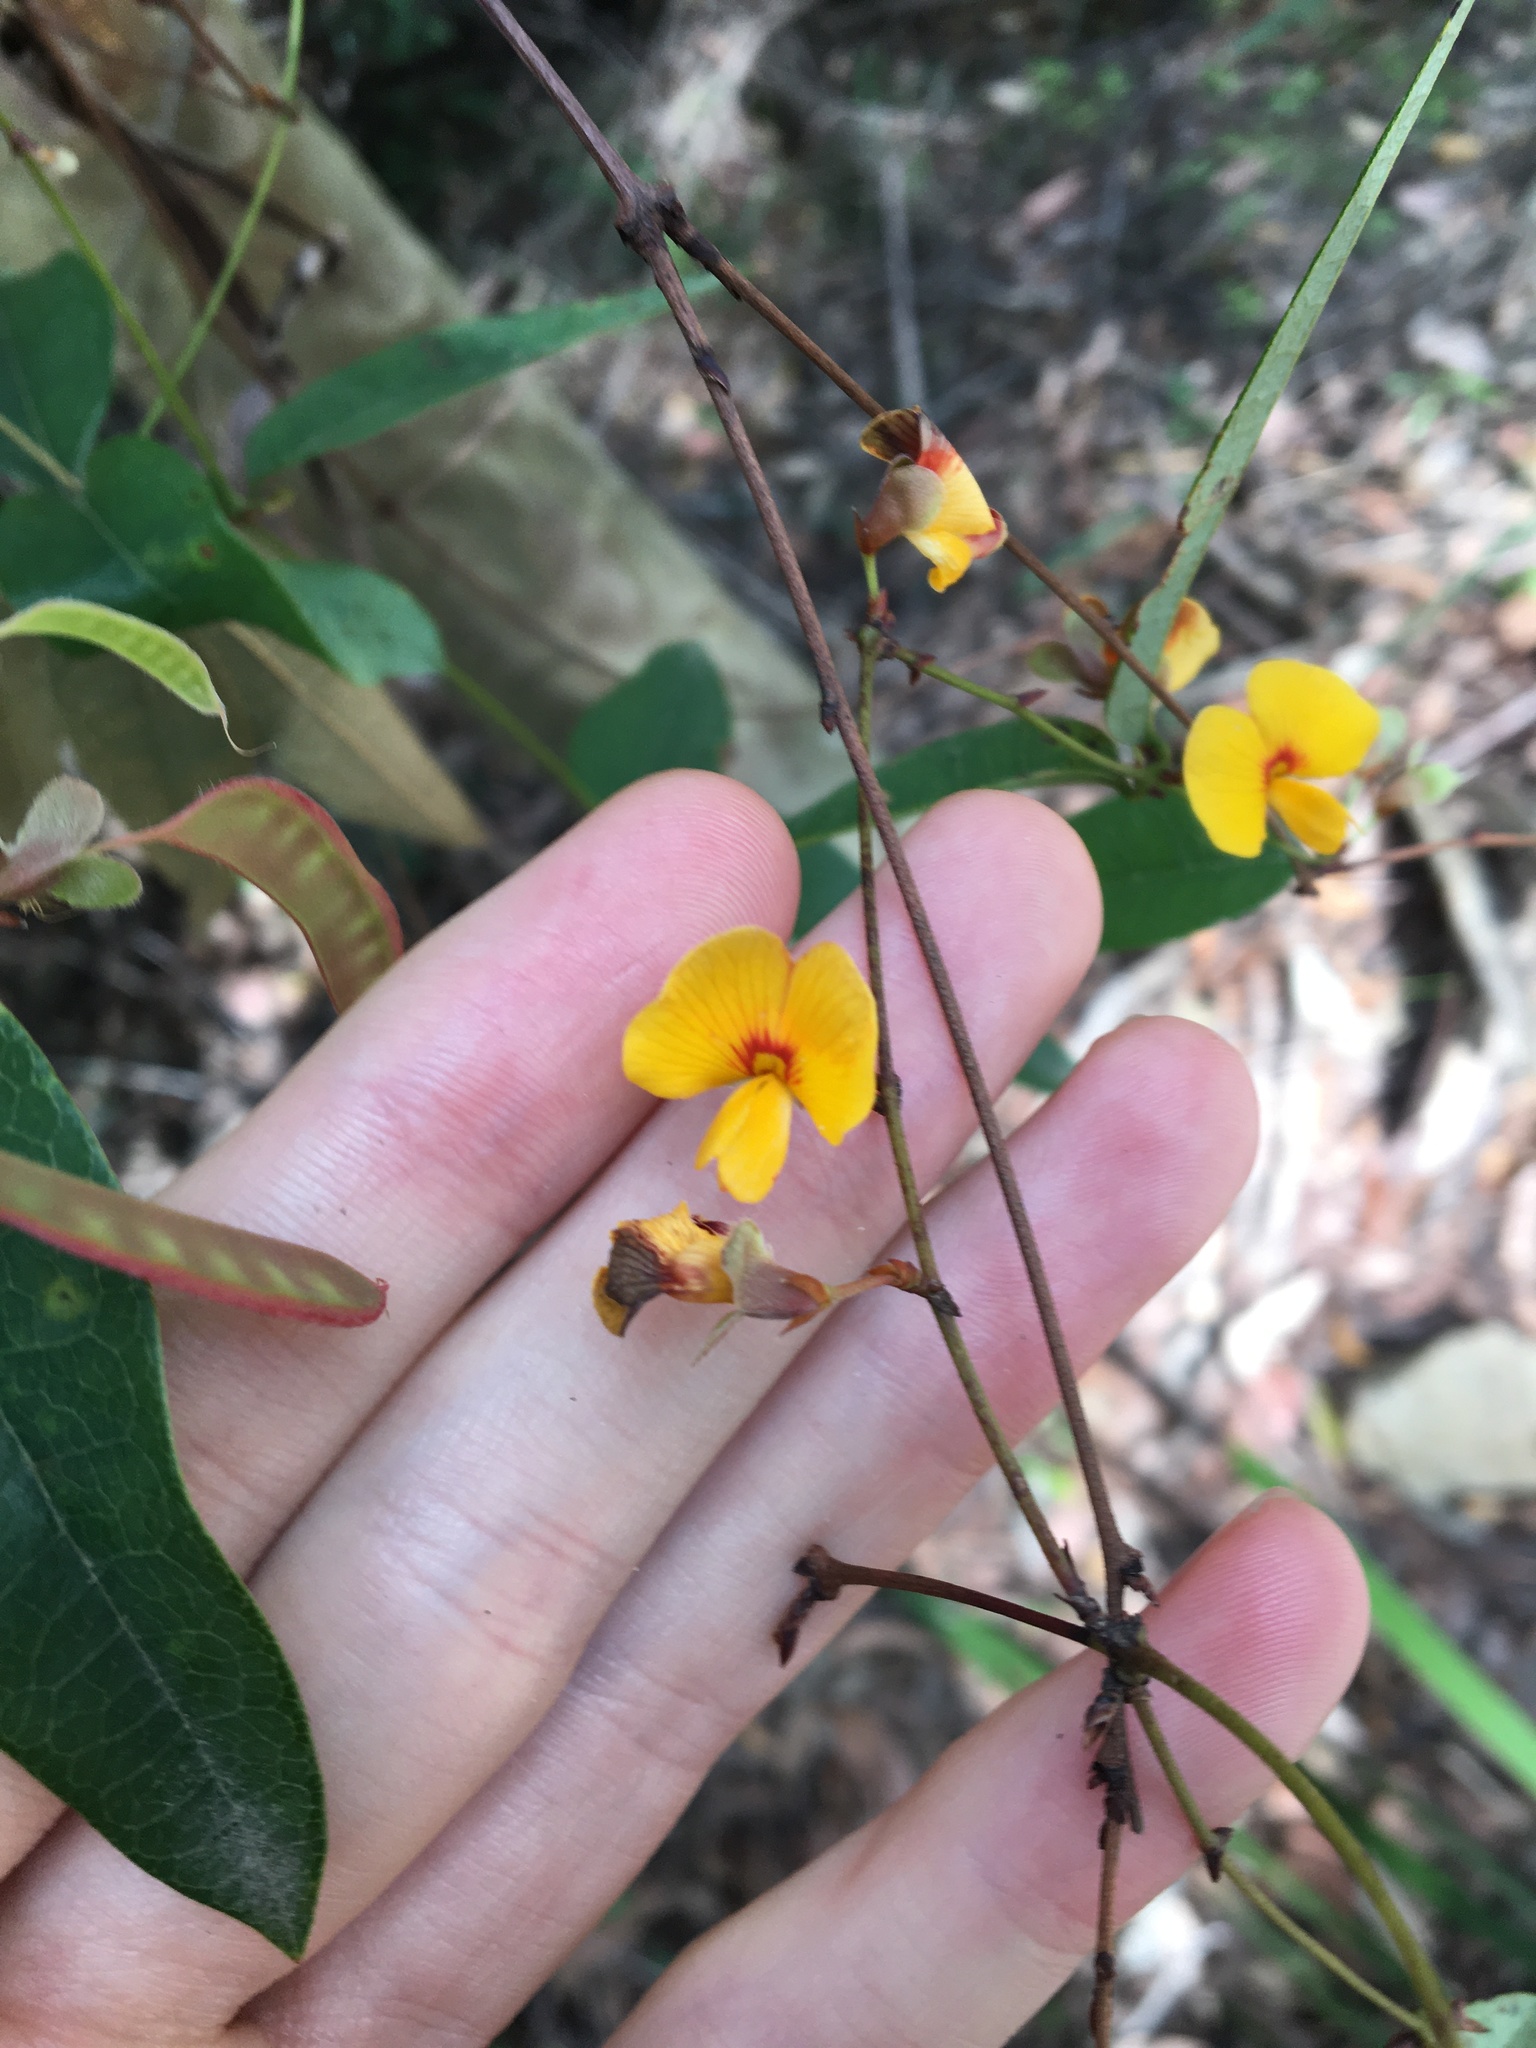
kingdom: Plantae
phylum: Tracheophyta
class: Magnoliopsida
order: Fabales
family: Fabaceae
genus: Platylobium
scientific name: Platylobium formosum
